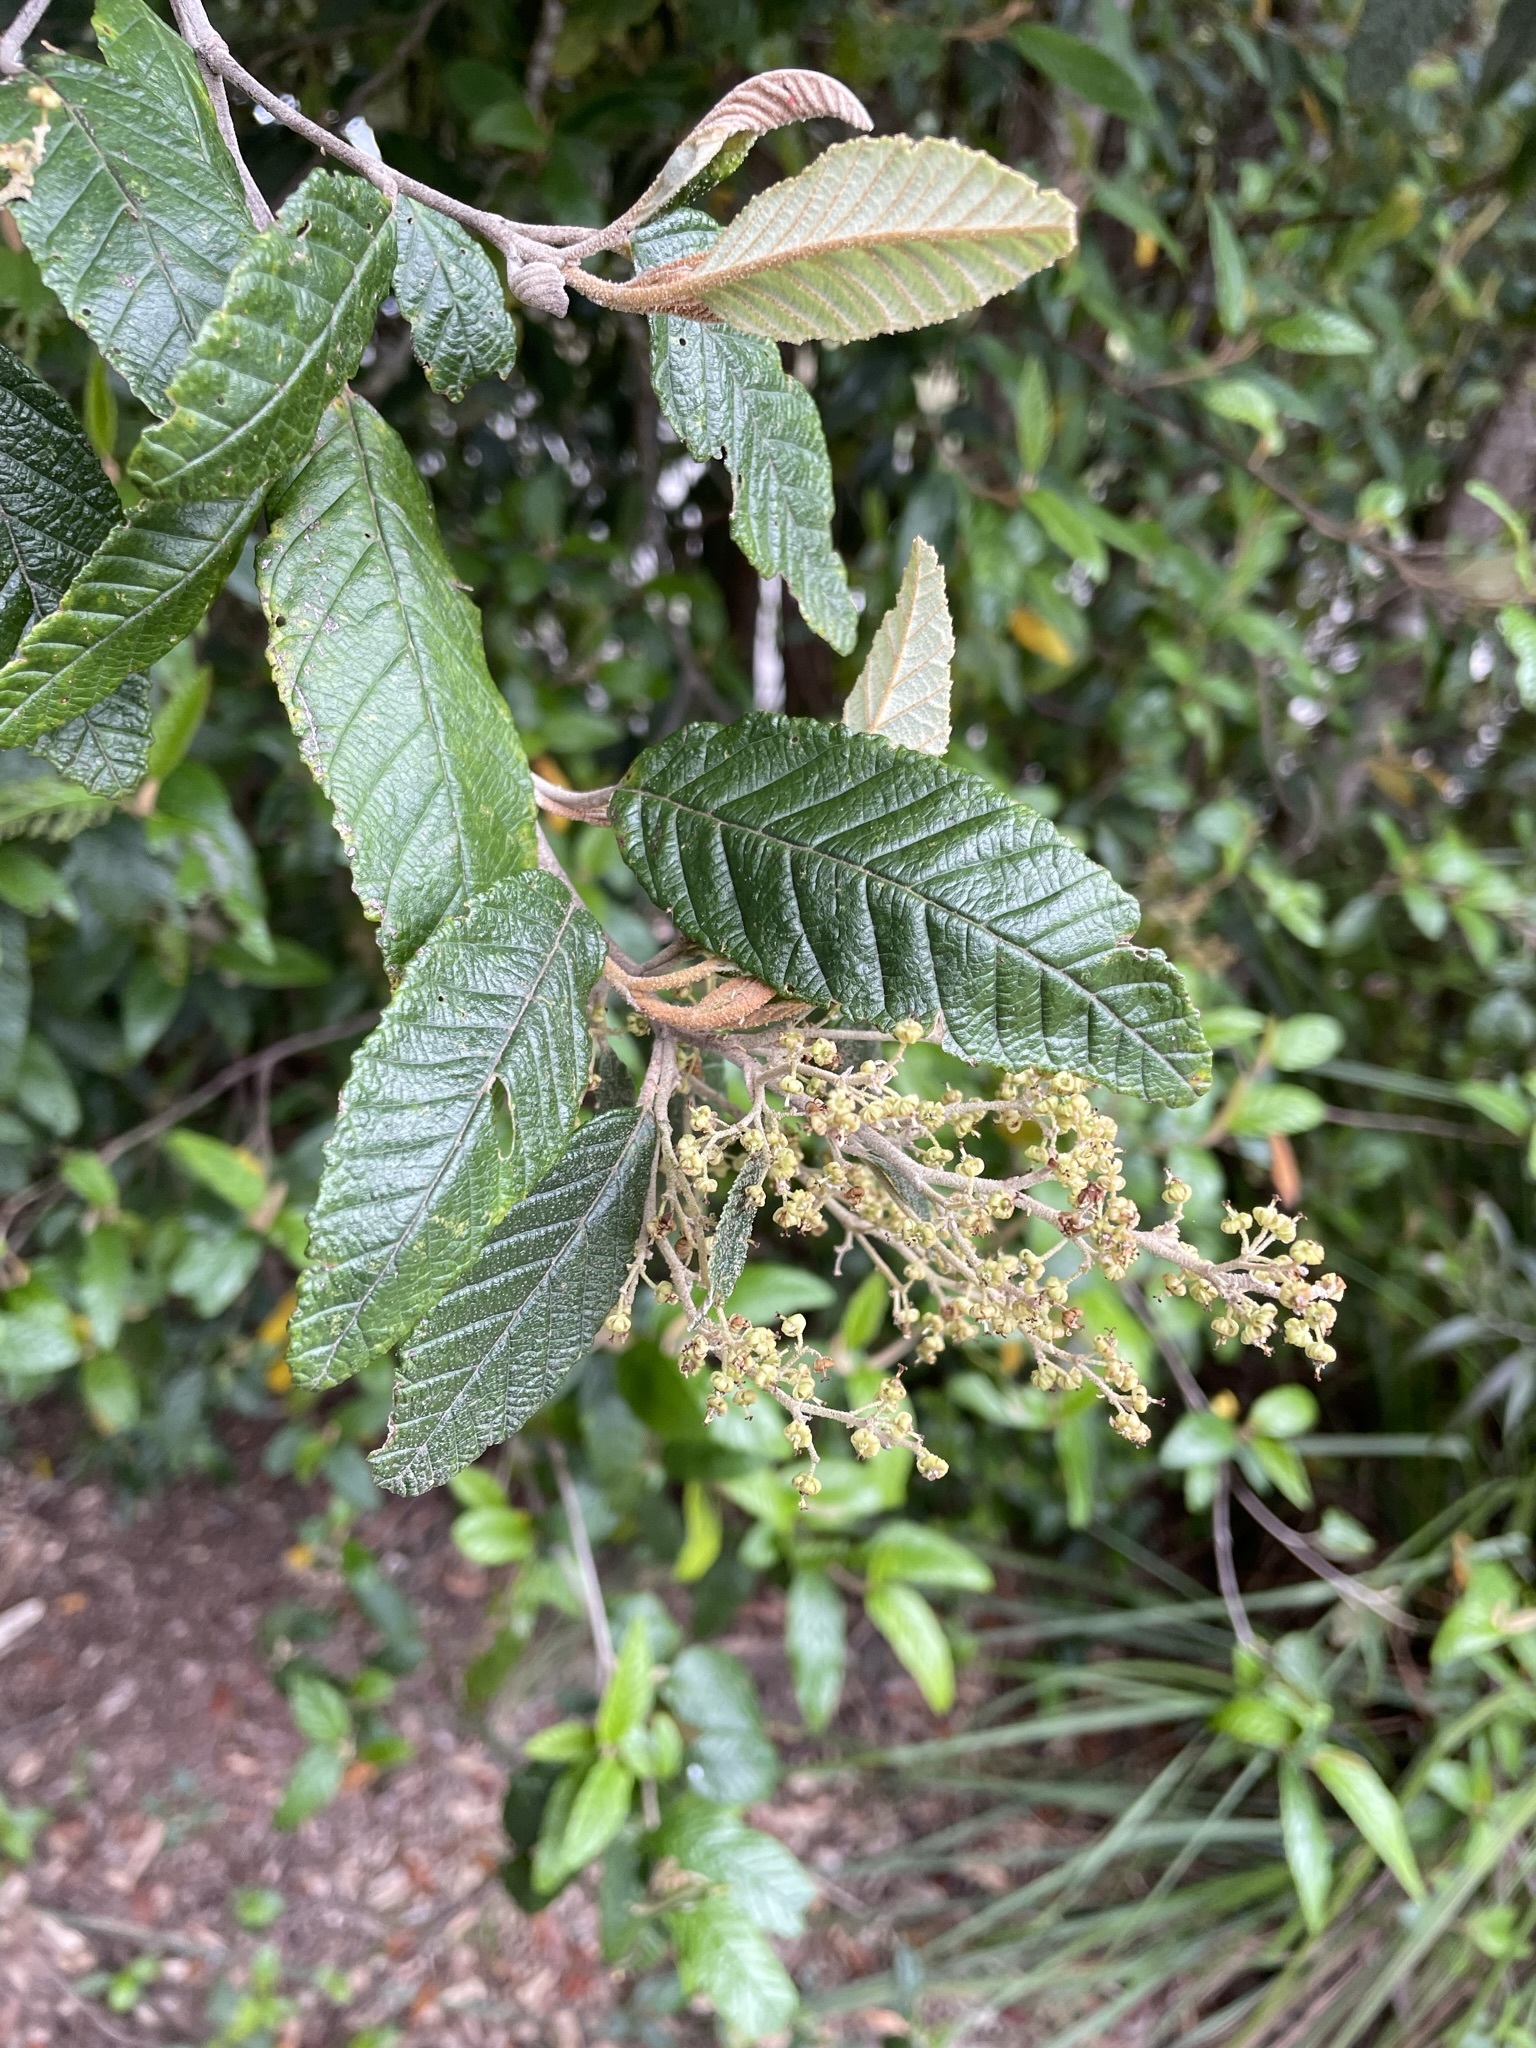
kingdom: Plantae
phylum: Tracheophyta
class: Magnoliopsida
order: Rosales
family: Rhamnaceae
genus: Pomaderris
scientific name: Pomaderris apetala
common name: Hazel pomaderris
